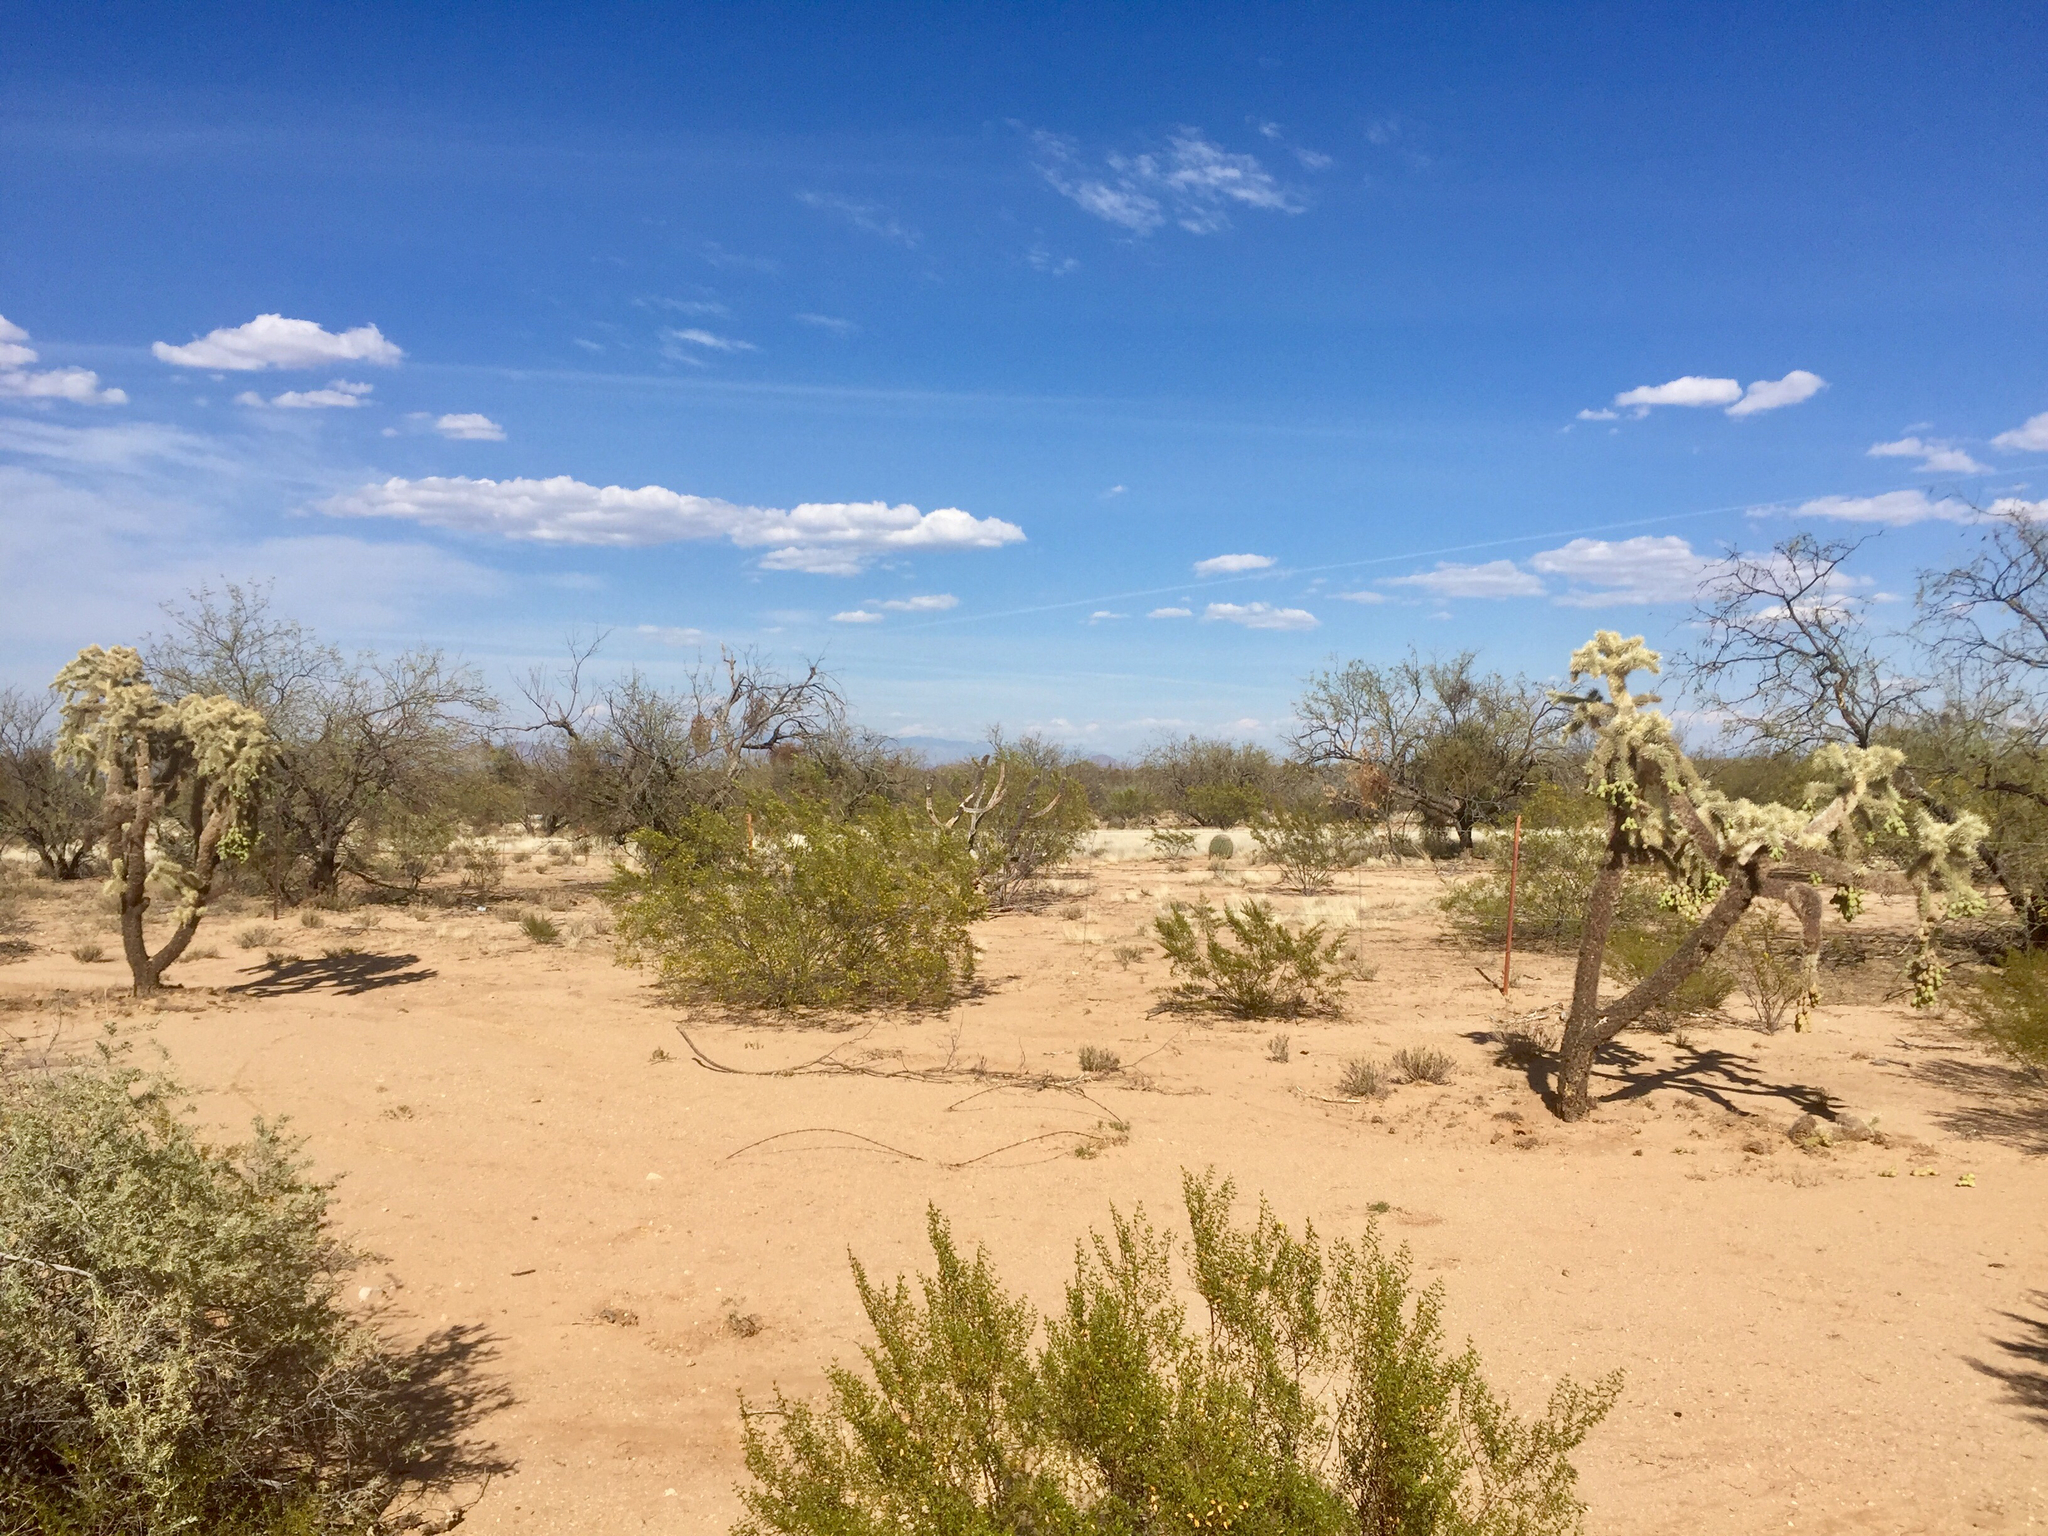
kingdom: Plantae
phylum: Tracheophyta
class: Magnoliopsida
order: Caryophyllales
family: Cactaceae
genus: Cylindropuntia
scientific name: Cylindropuntia fulgida
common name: Jumping cholla
